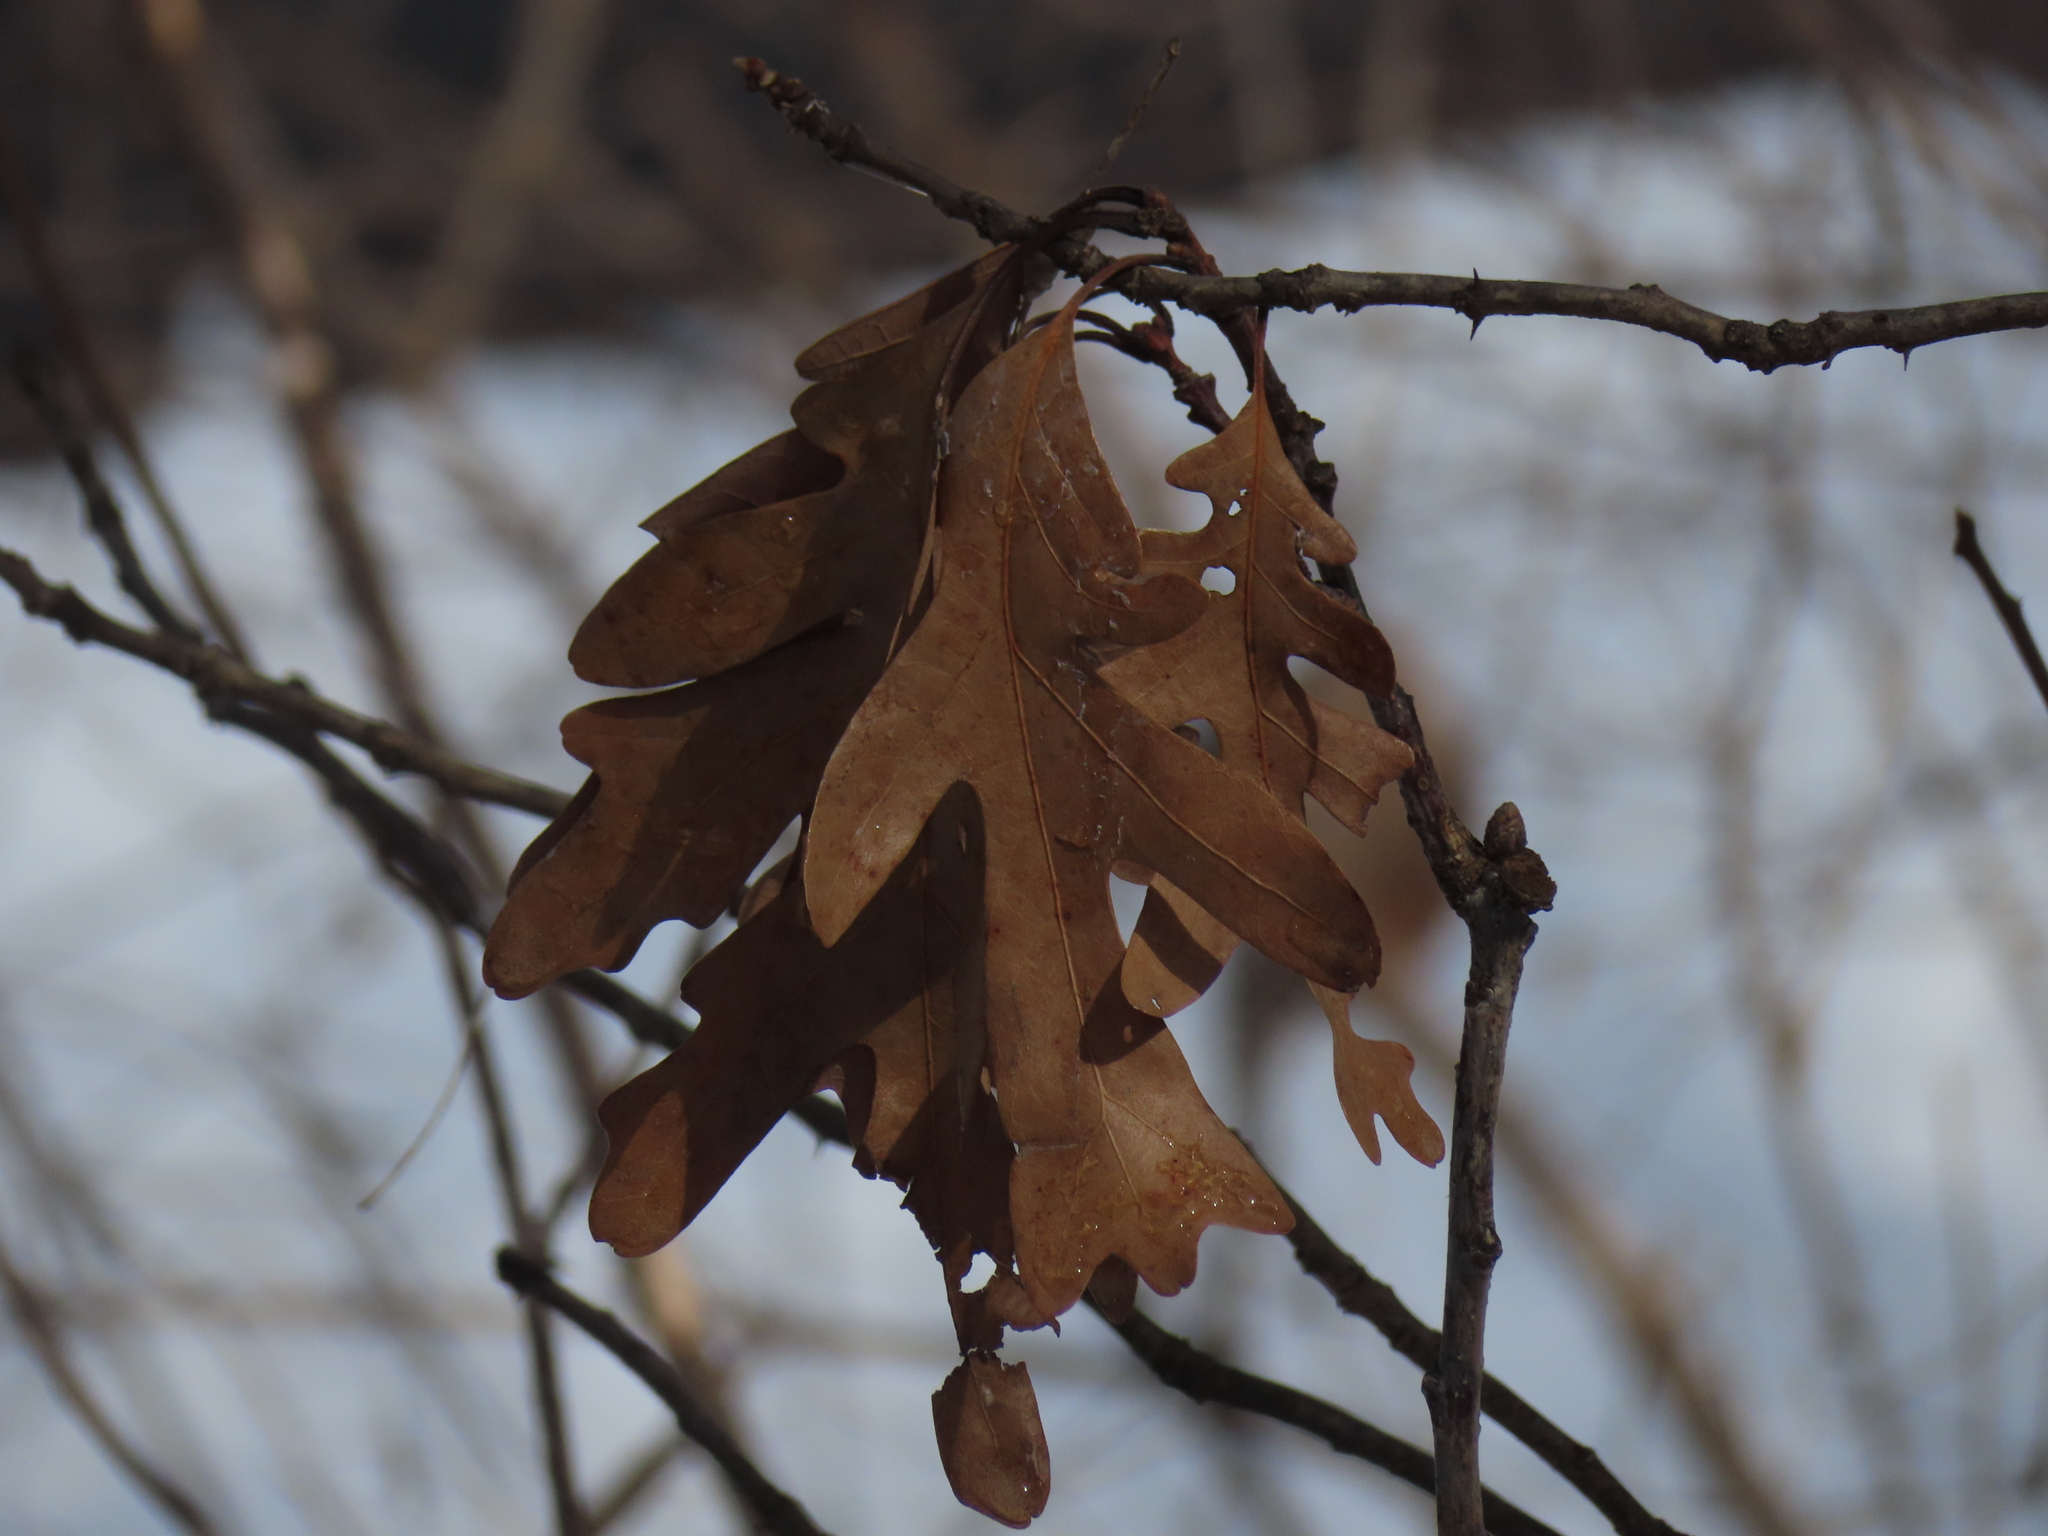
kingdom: Plantae
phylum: Tracheophyta
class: Magnoliopsida
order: Fagales
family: Fagaceae
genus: Quercus
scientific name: Quercus alba
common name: White oak
